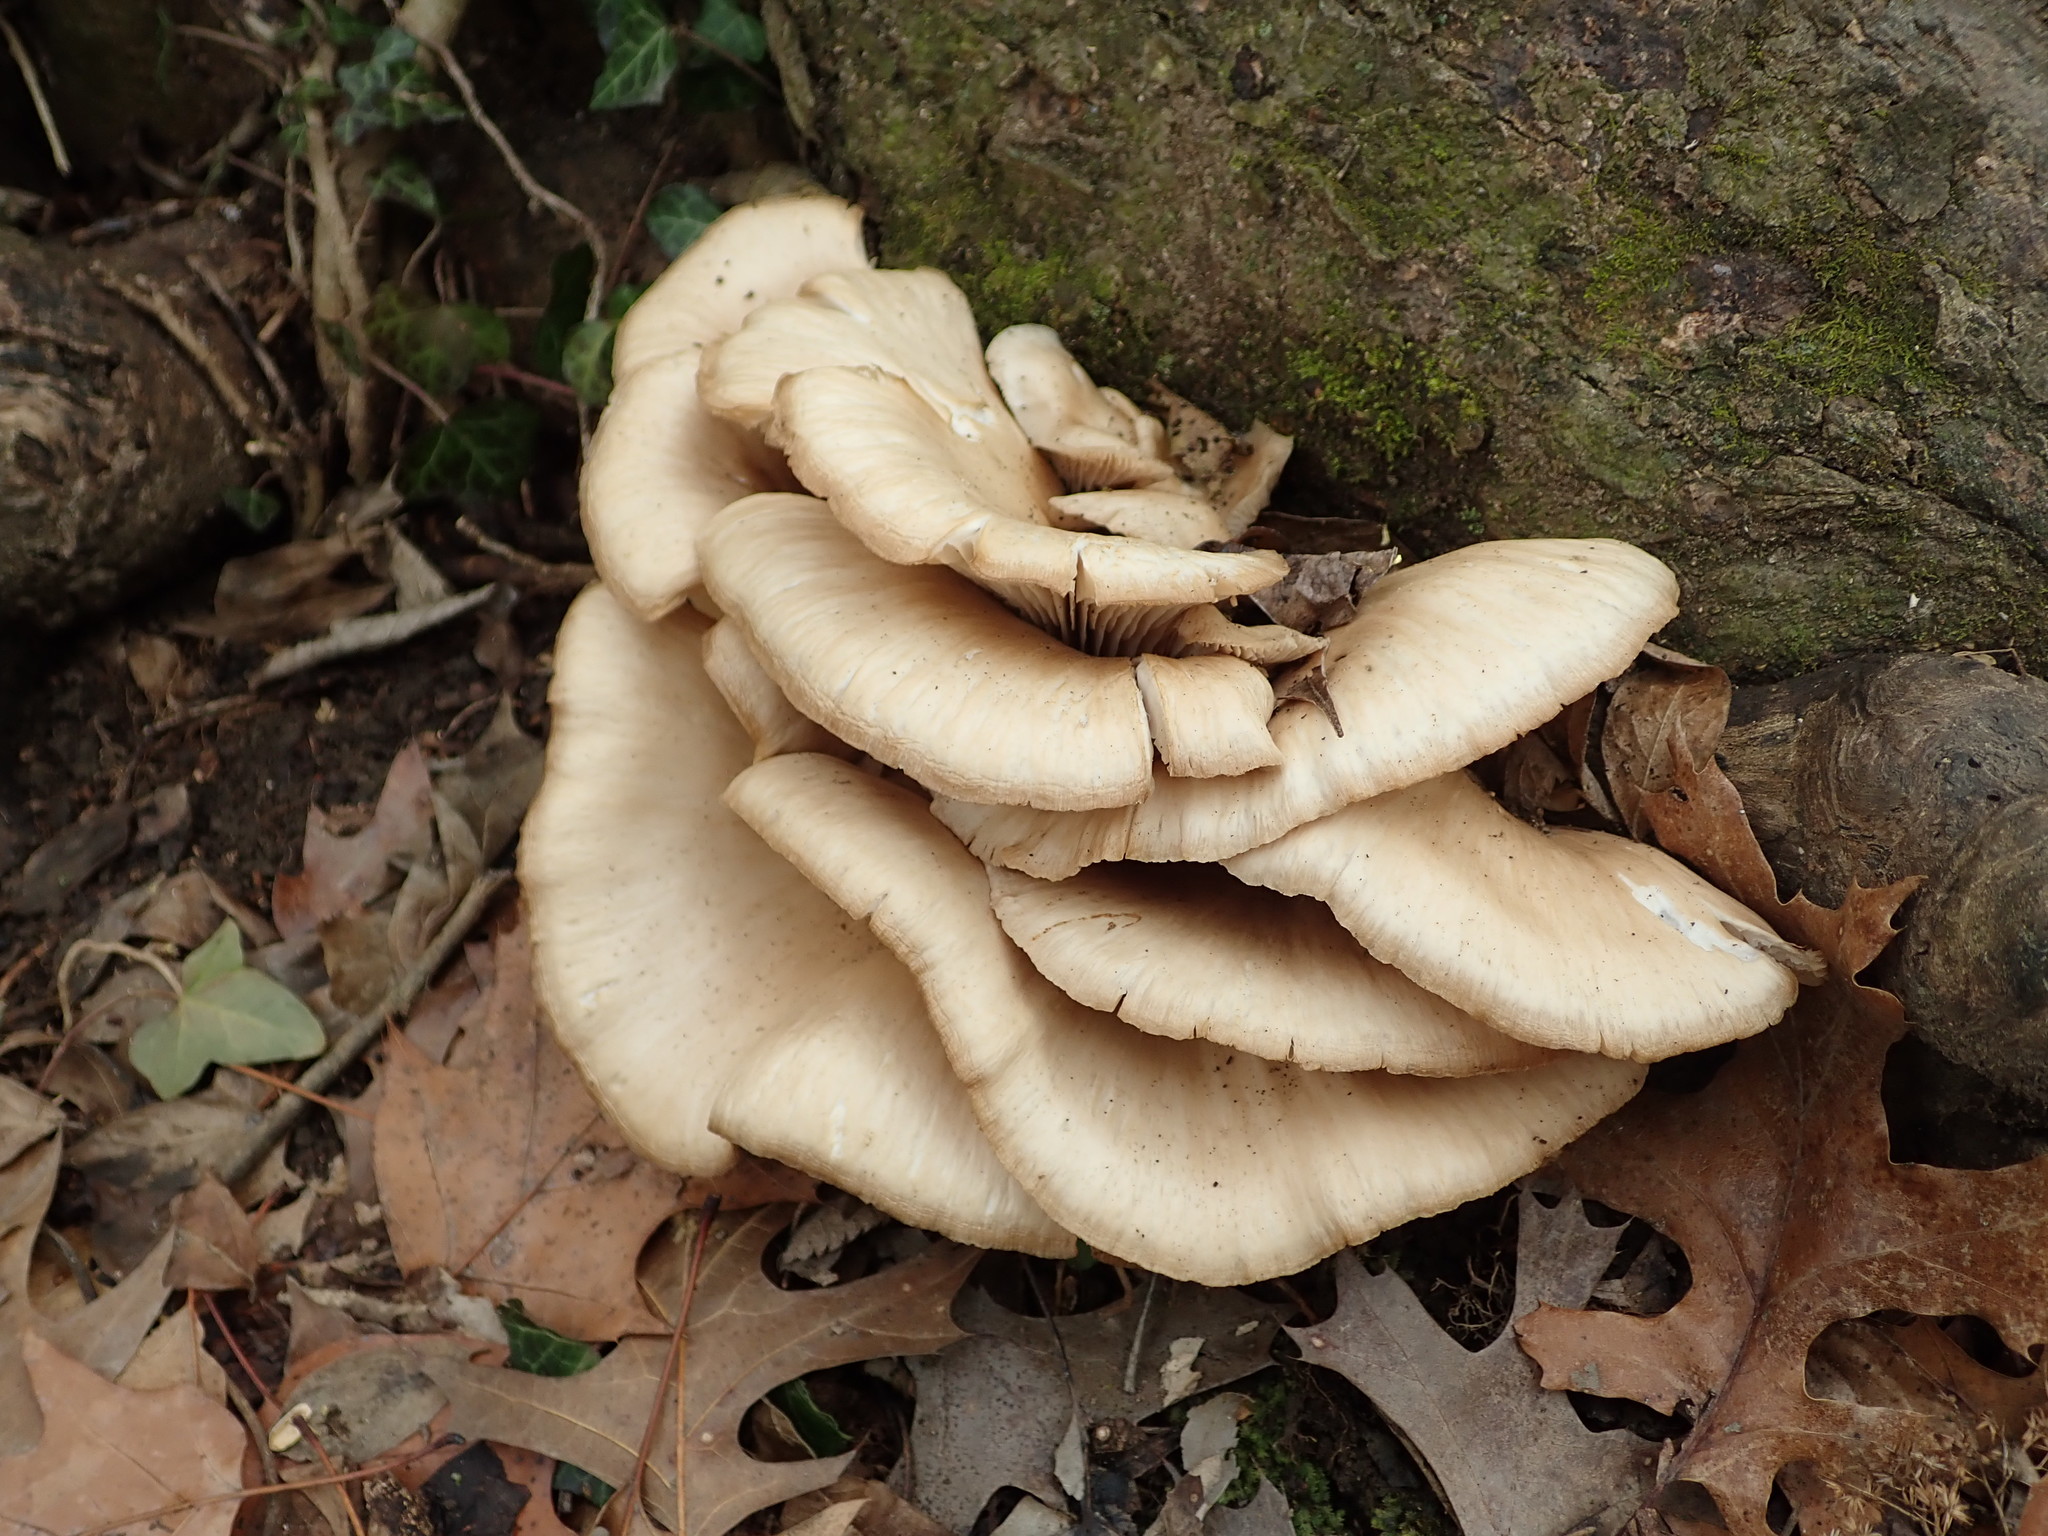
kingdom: Fungi
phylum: Basidiomycota
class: Agaricomycetes
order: Agaricales
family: Pleurotaceae
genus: Pleurotus
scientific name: Pleurotus ostreatus
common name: Oyster mushroom
